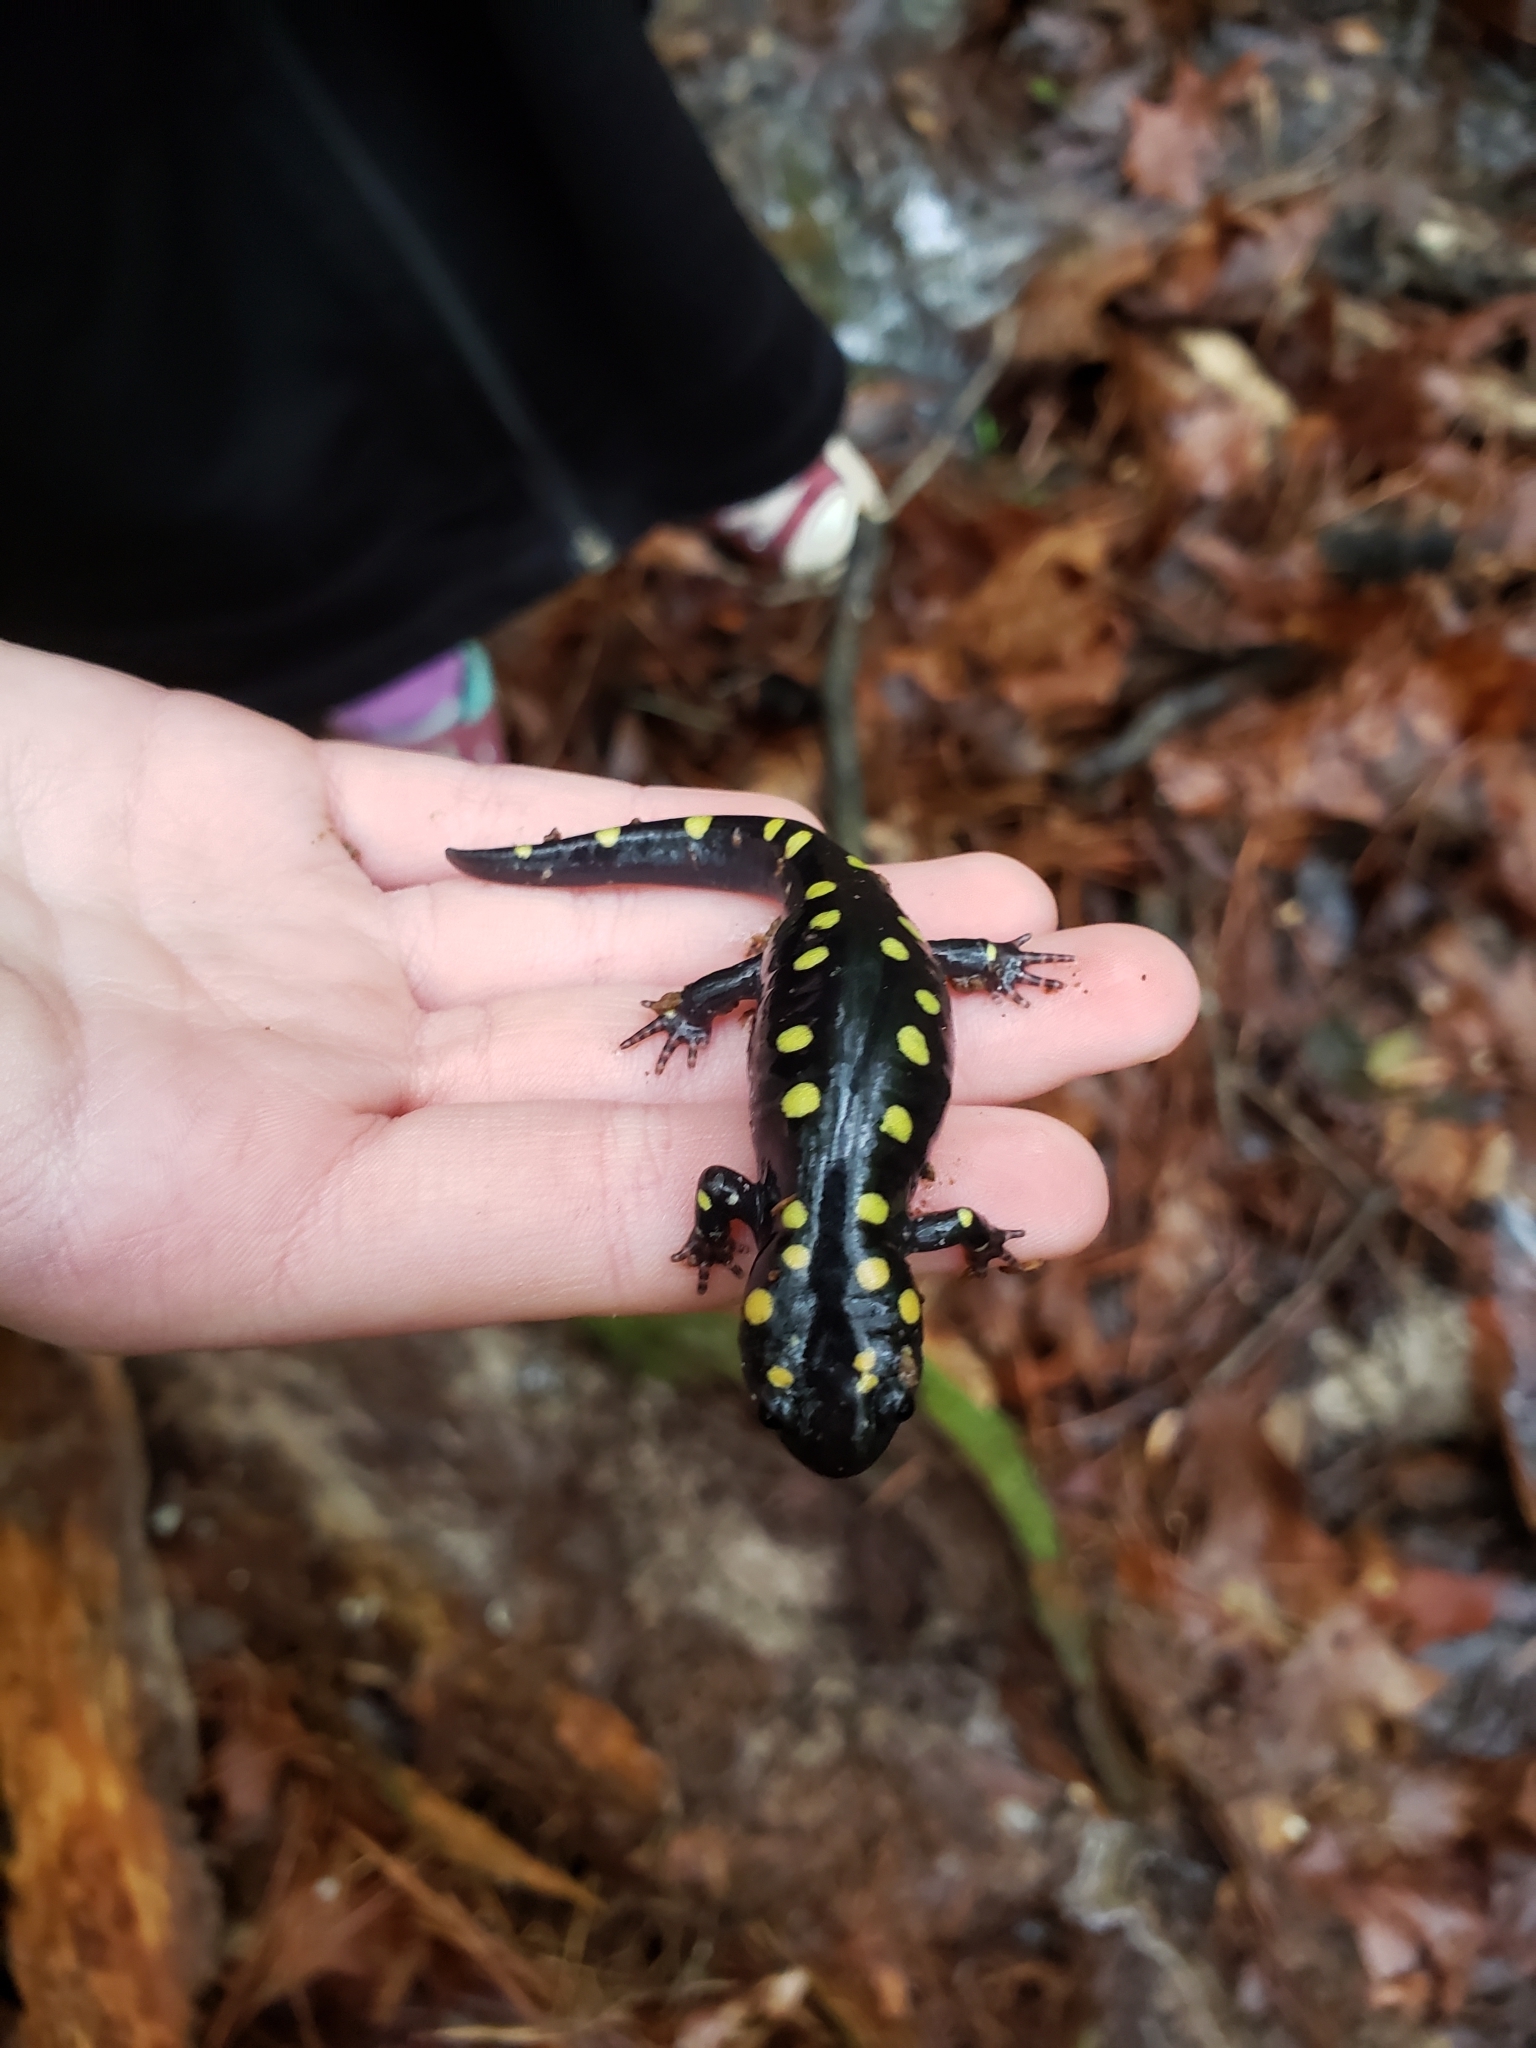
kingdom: Animalia
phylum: Chordata
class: Amphibia
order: Caudata
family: Ambystomatidae
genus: Ambystoma
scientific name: Ambystoma maculatum
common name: Spotted salamander
